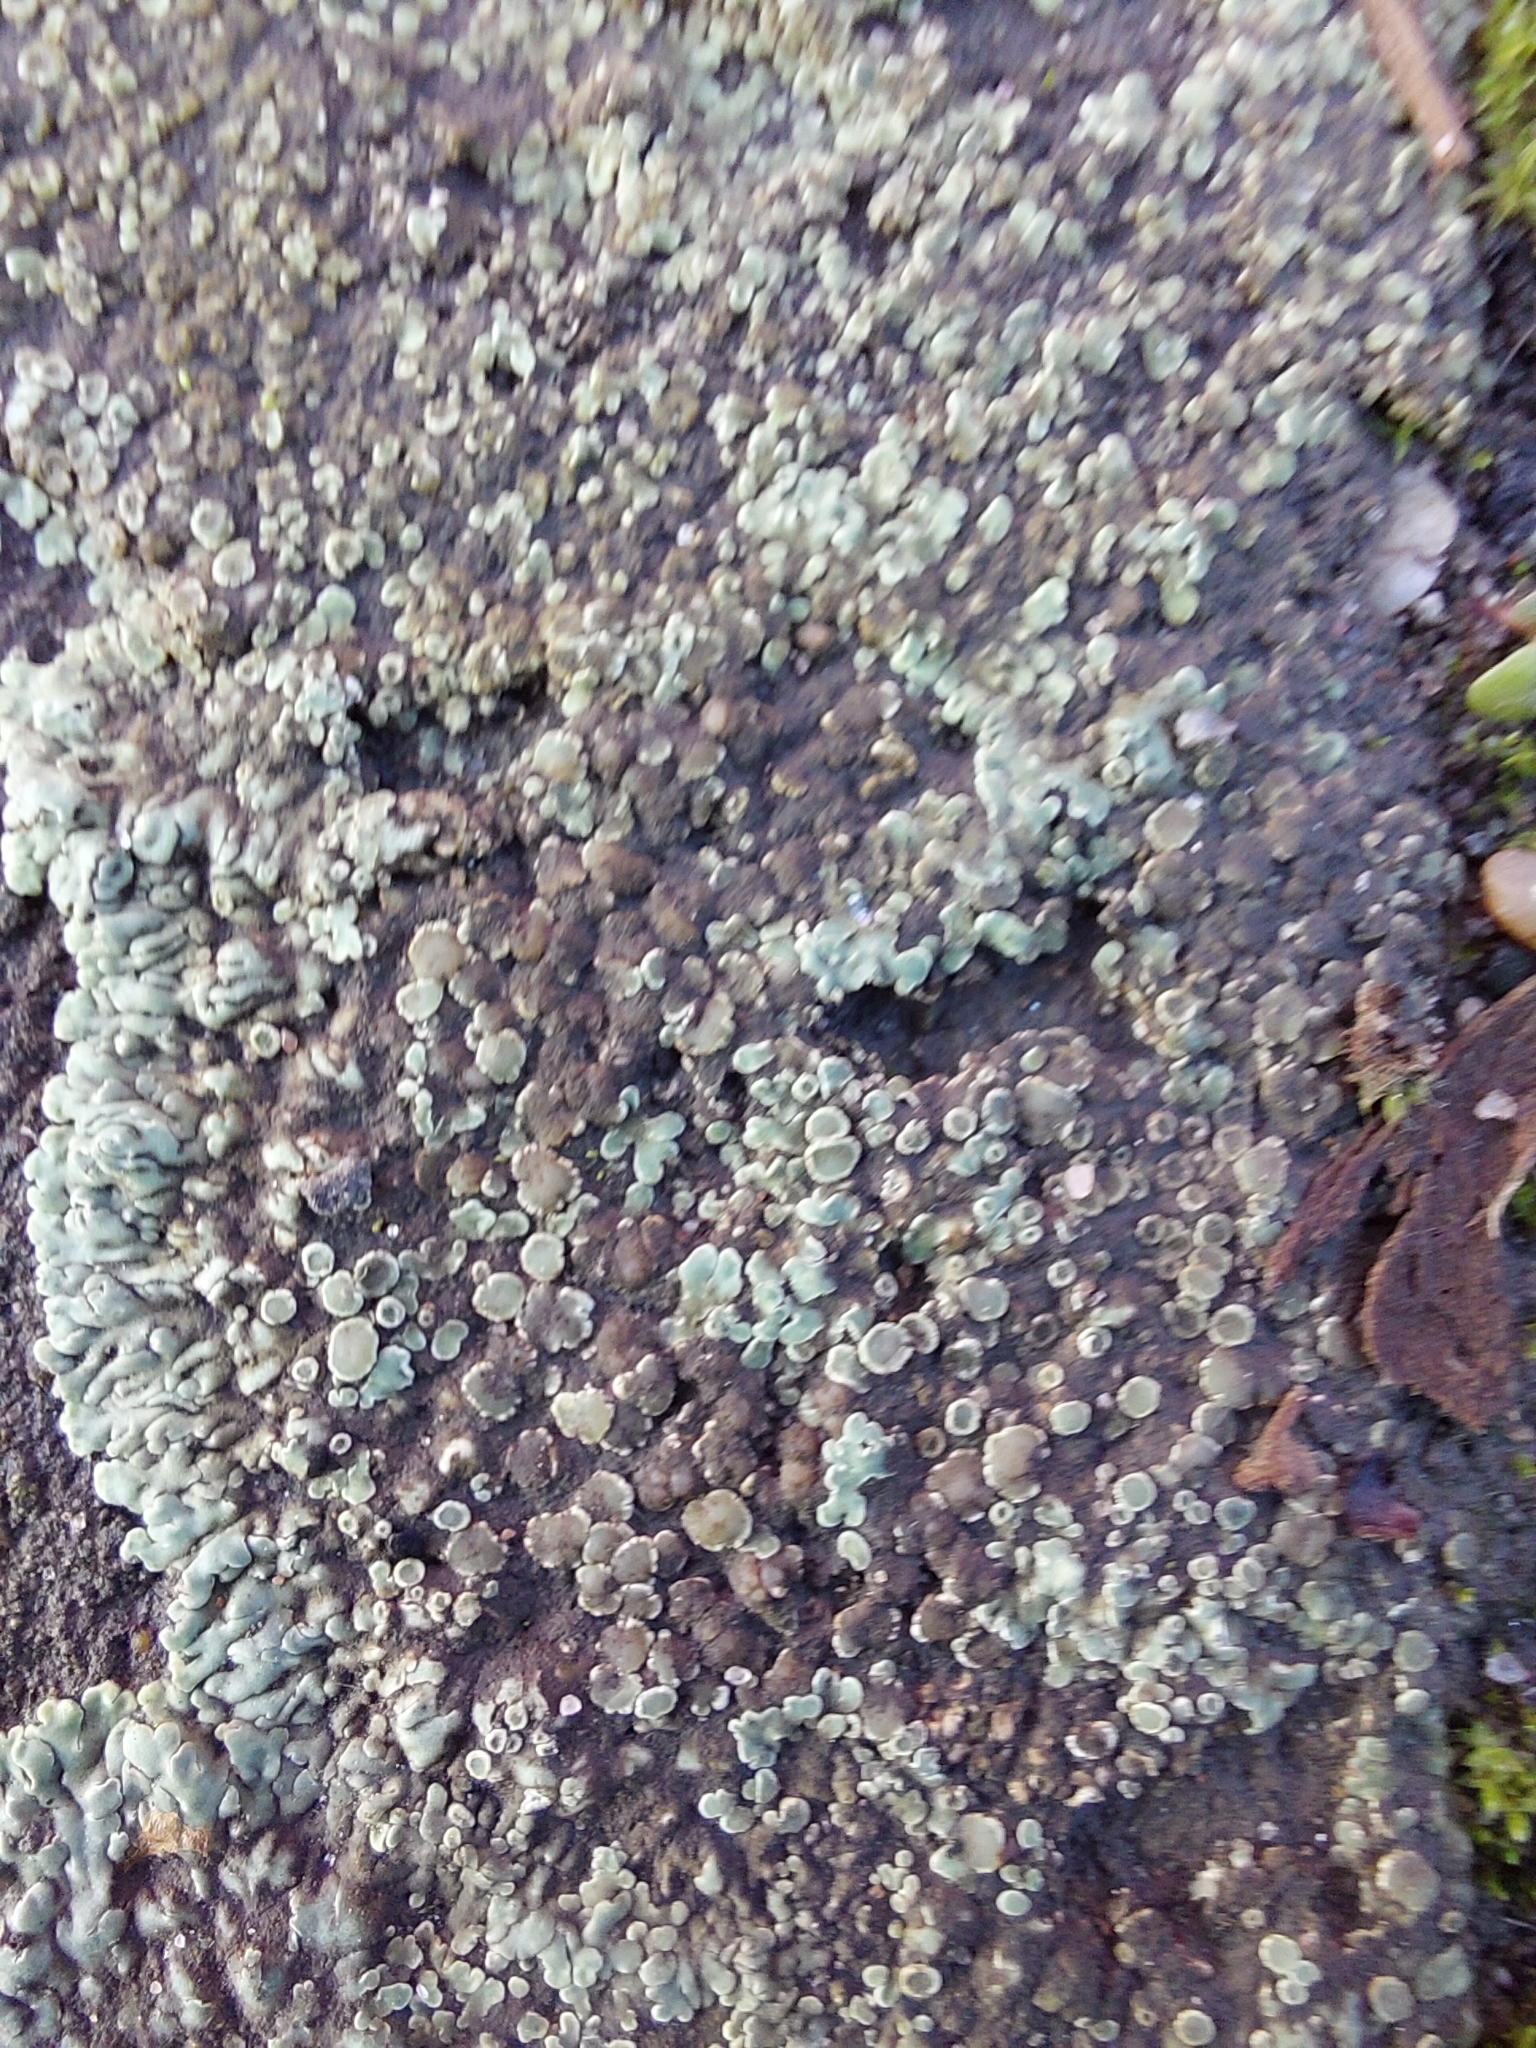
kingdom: Fungi
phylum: Ascomycota
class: Lecanoromycetes
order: Lecanorales
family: Lecanoraceae
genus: Protoparmeliopsis
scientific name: Protoparmeliopsis muralis
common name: Stonewall rim lichen
